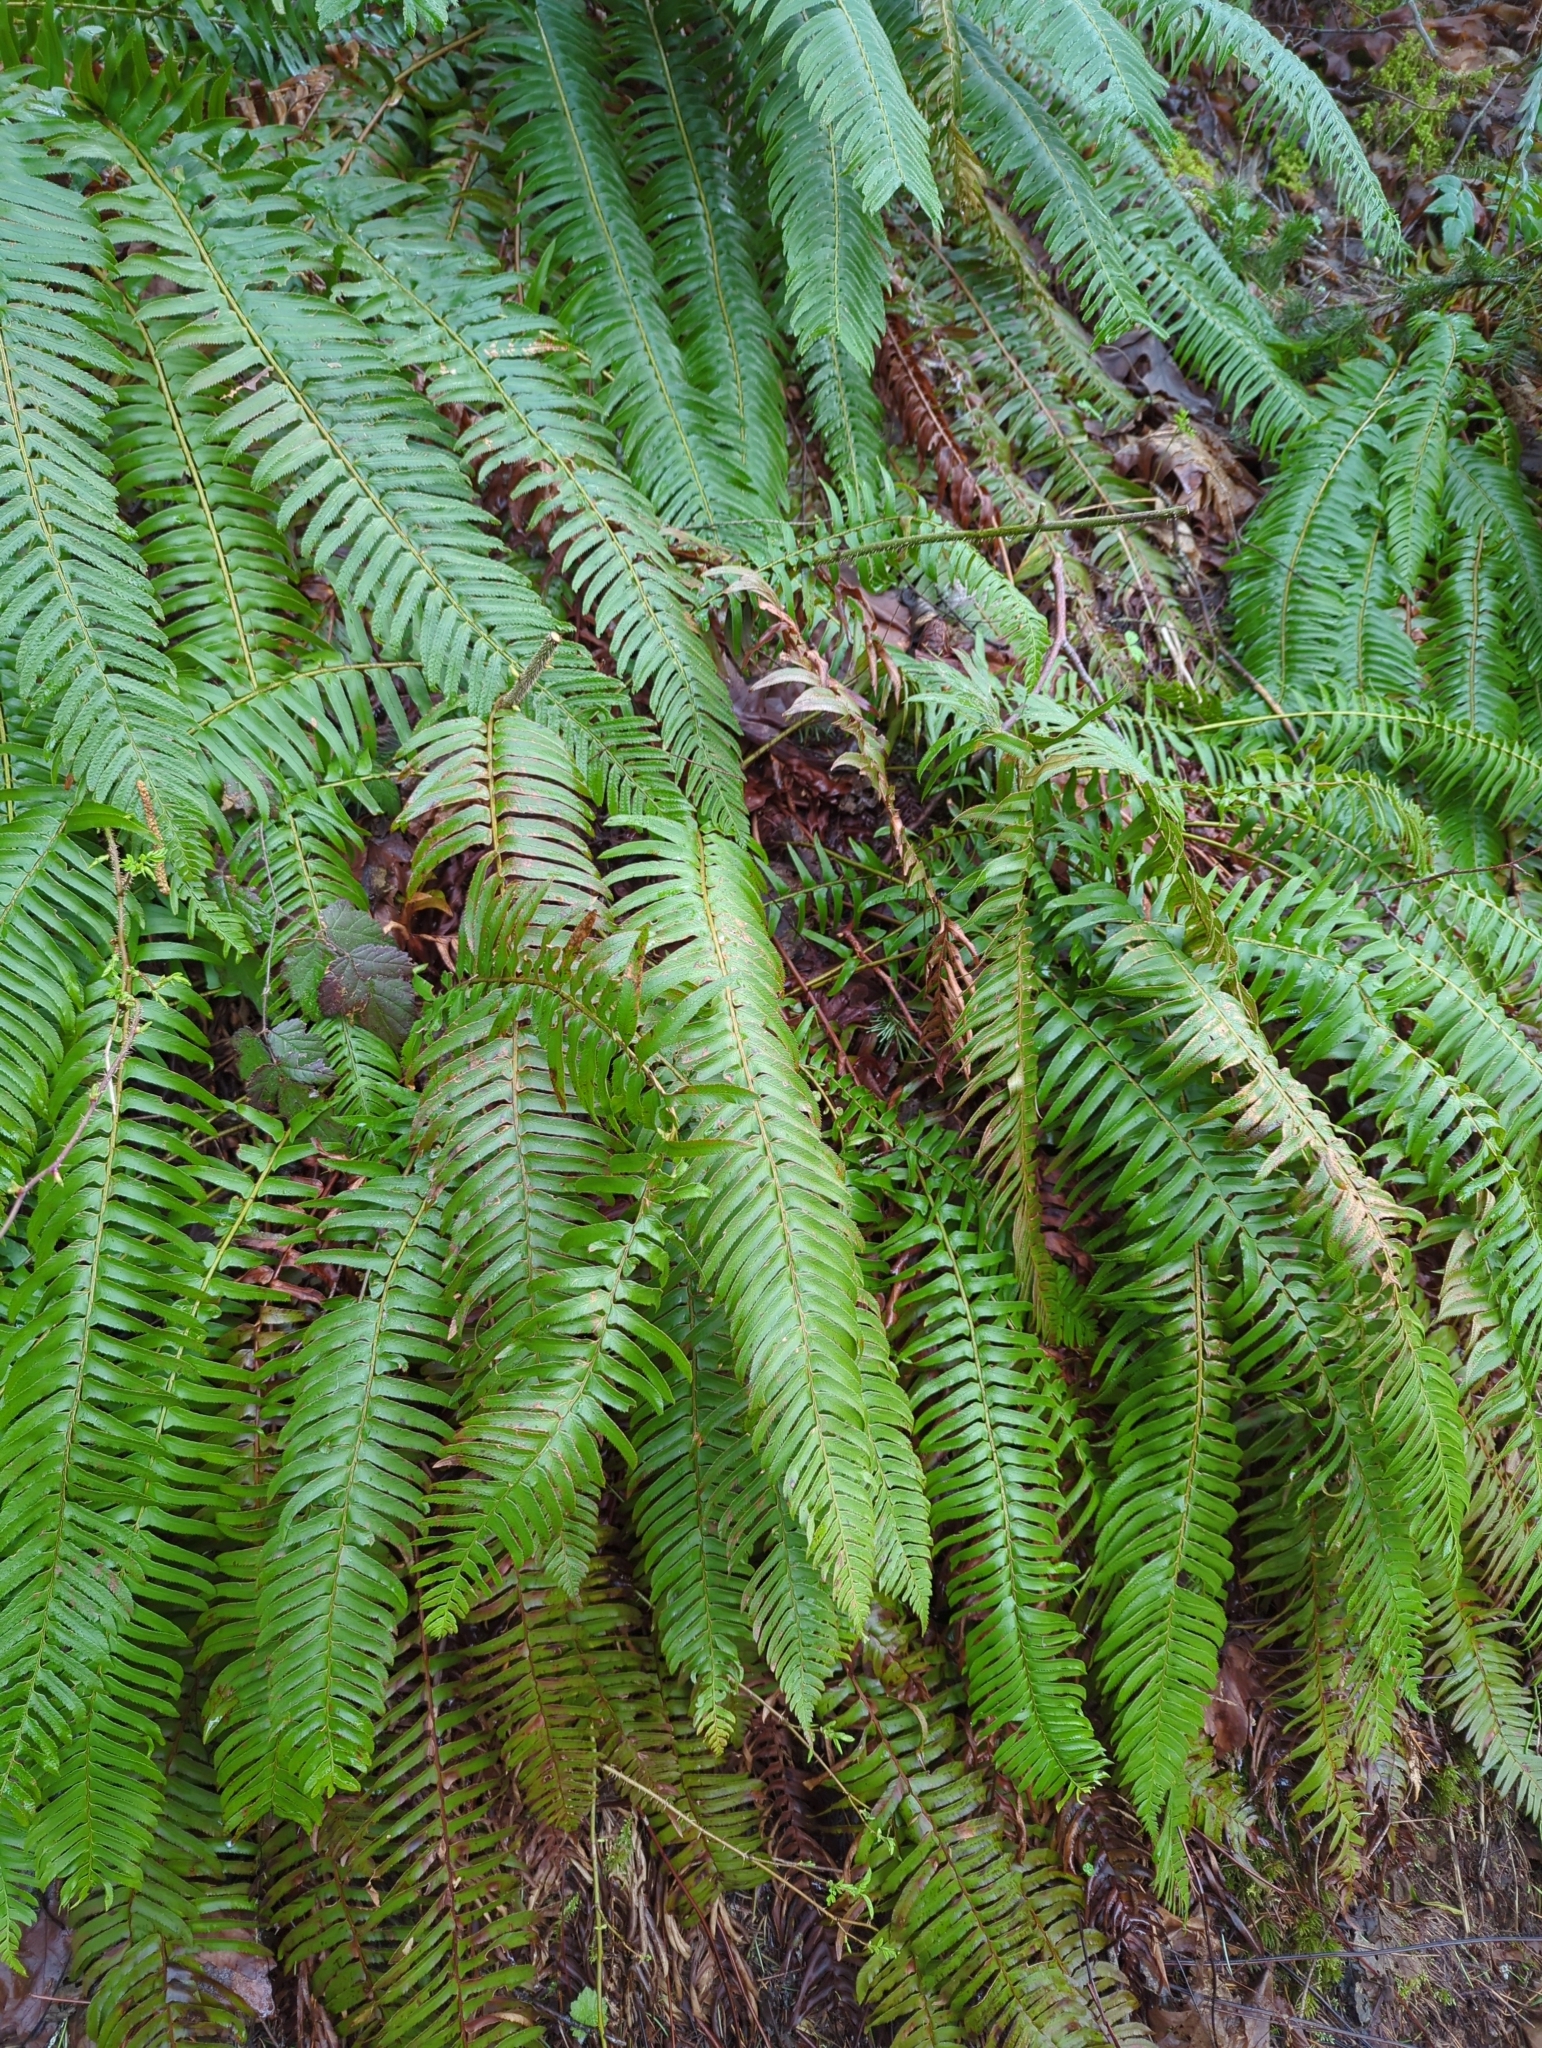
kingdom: Plantae
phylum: Tracheophyta
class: Polypodiopsida
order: Polypodiales
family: Dryopteridaceae
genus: Polystichum
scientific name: Polystichum munitum
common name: Western sword-fern
